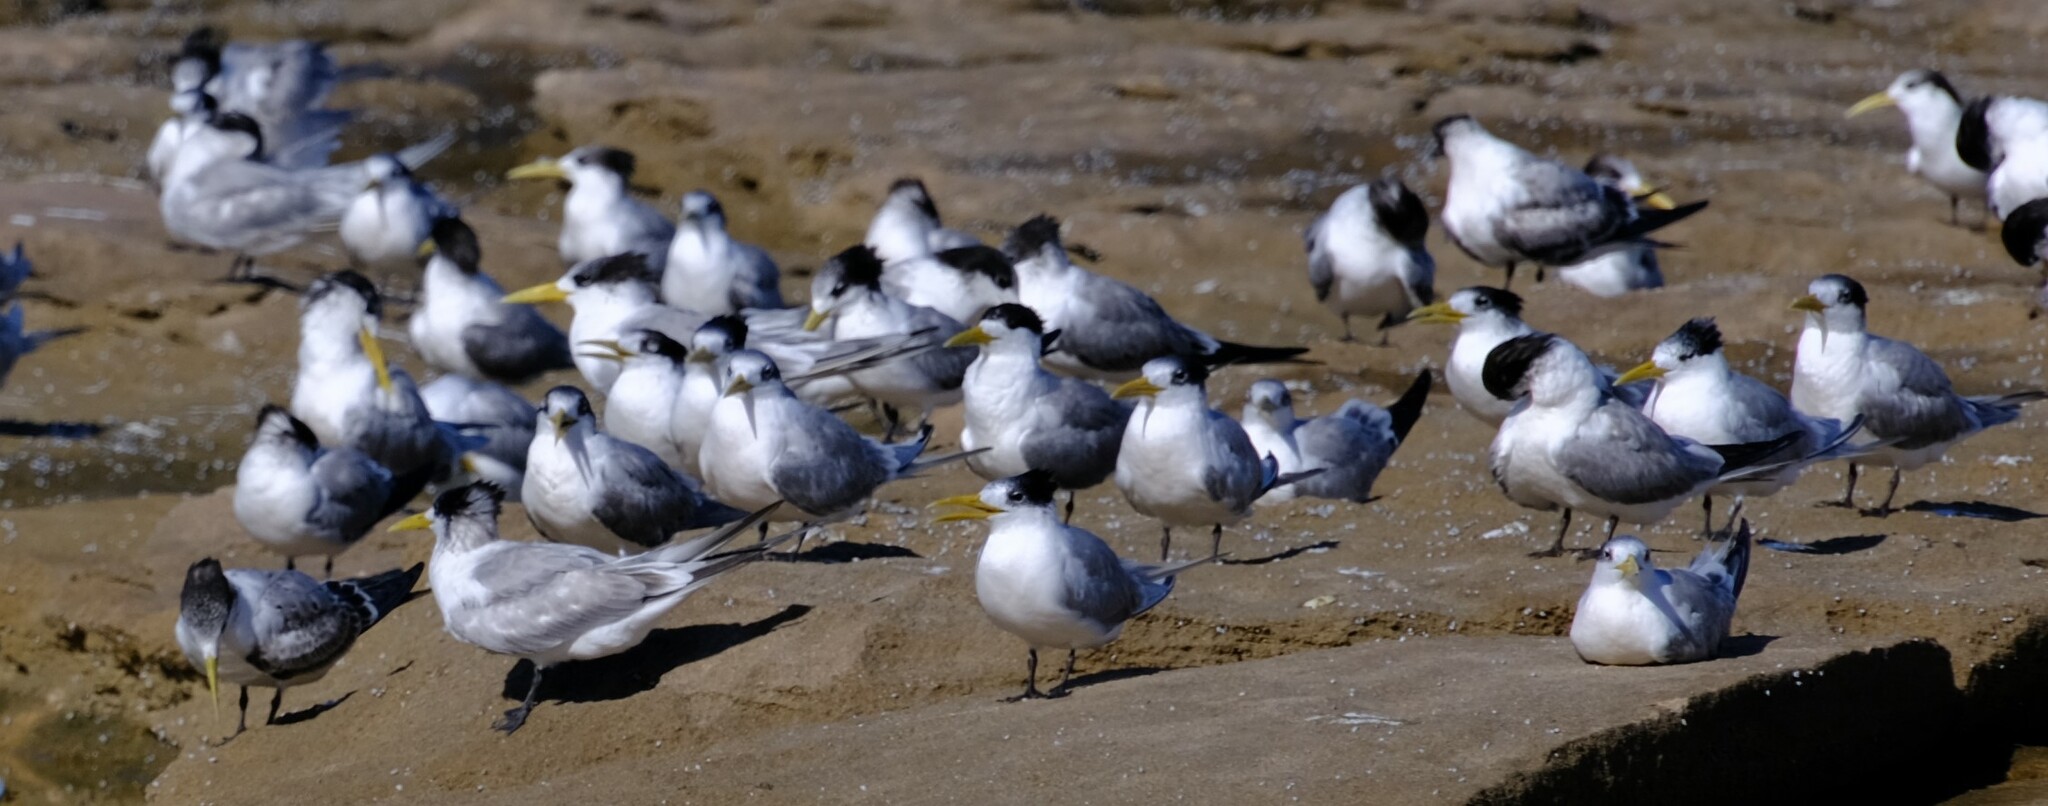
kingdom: Animalia
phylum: Chordata
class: Aves
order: Charadriiformes
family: Laridae
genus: Thalasseus
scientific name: Thalasseus bergii
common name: Greater crested tern
